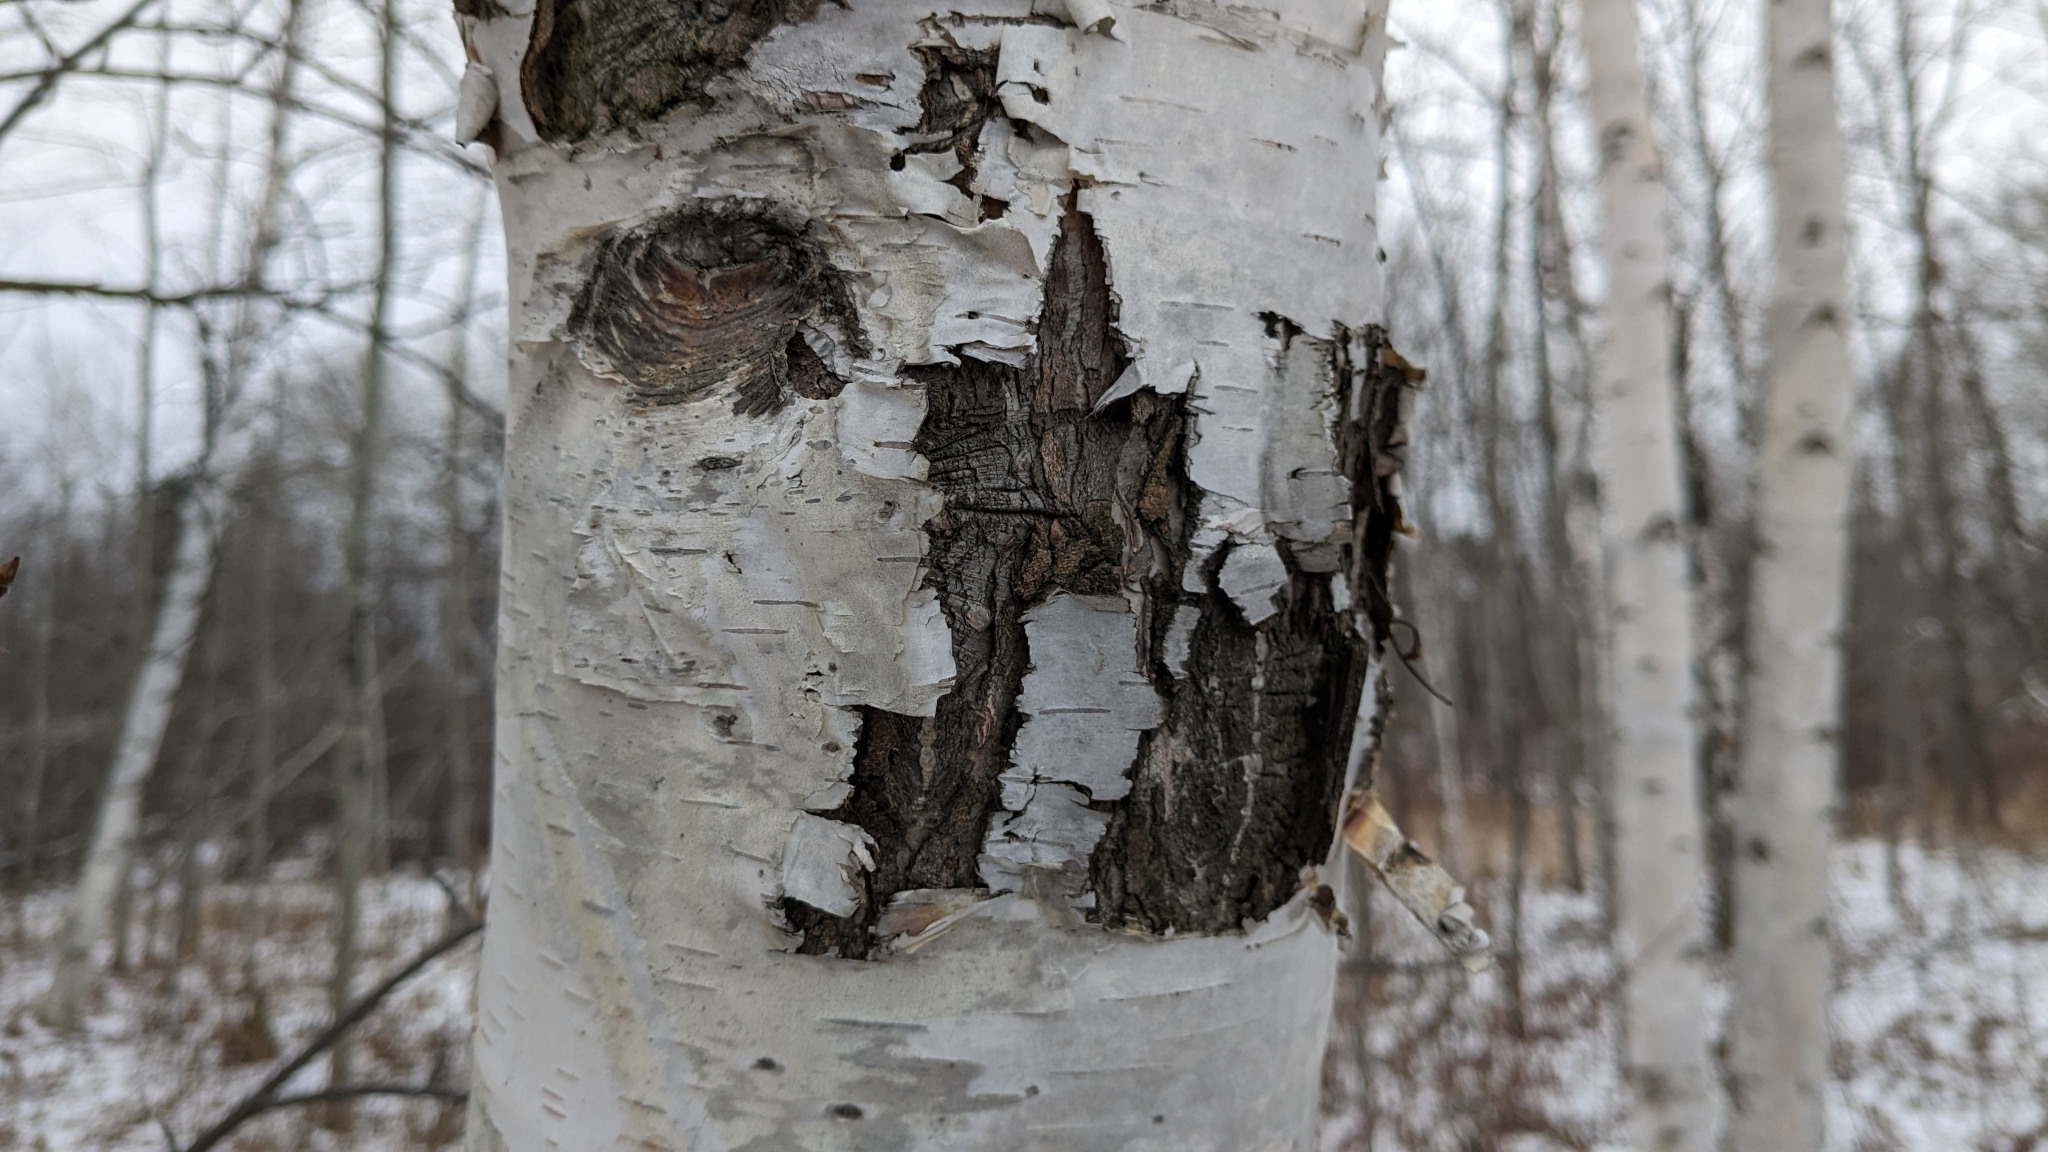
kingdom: Plantae
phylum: Tracheophyta
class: Magnoliopsida
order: Malpighiales
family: Salicaceae
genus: Populus
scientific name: Populus tremuloides
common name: Quaking aspen
